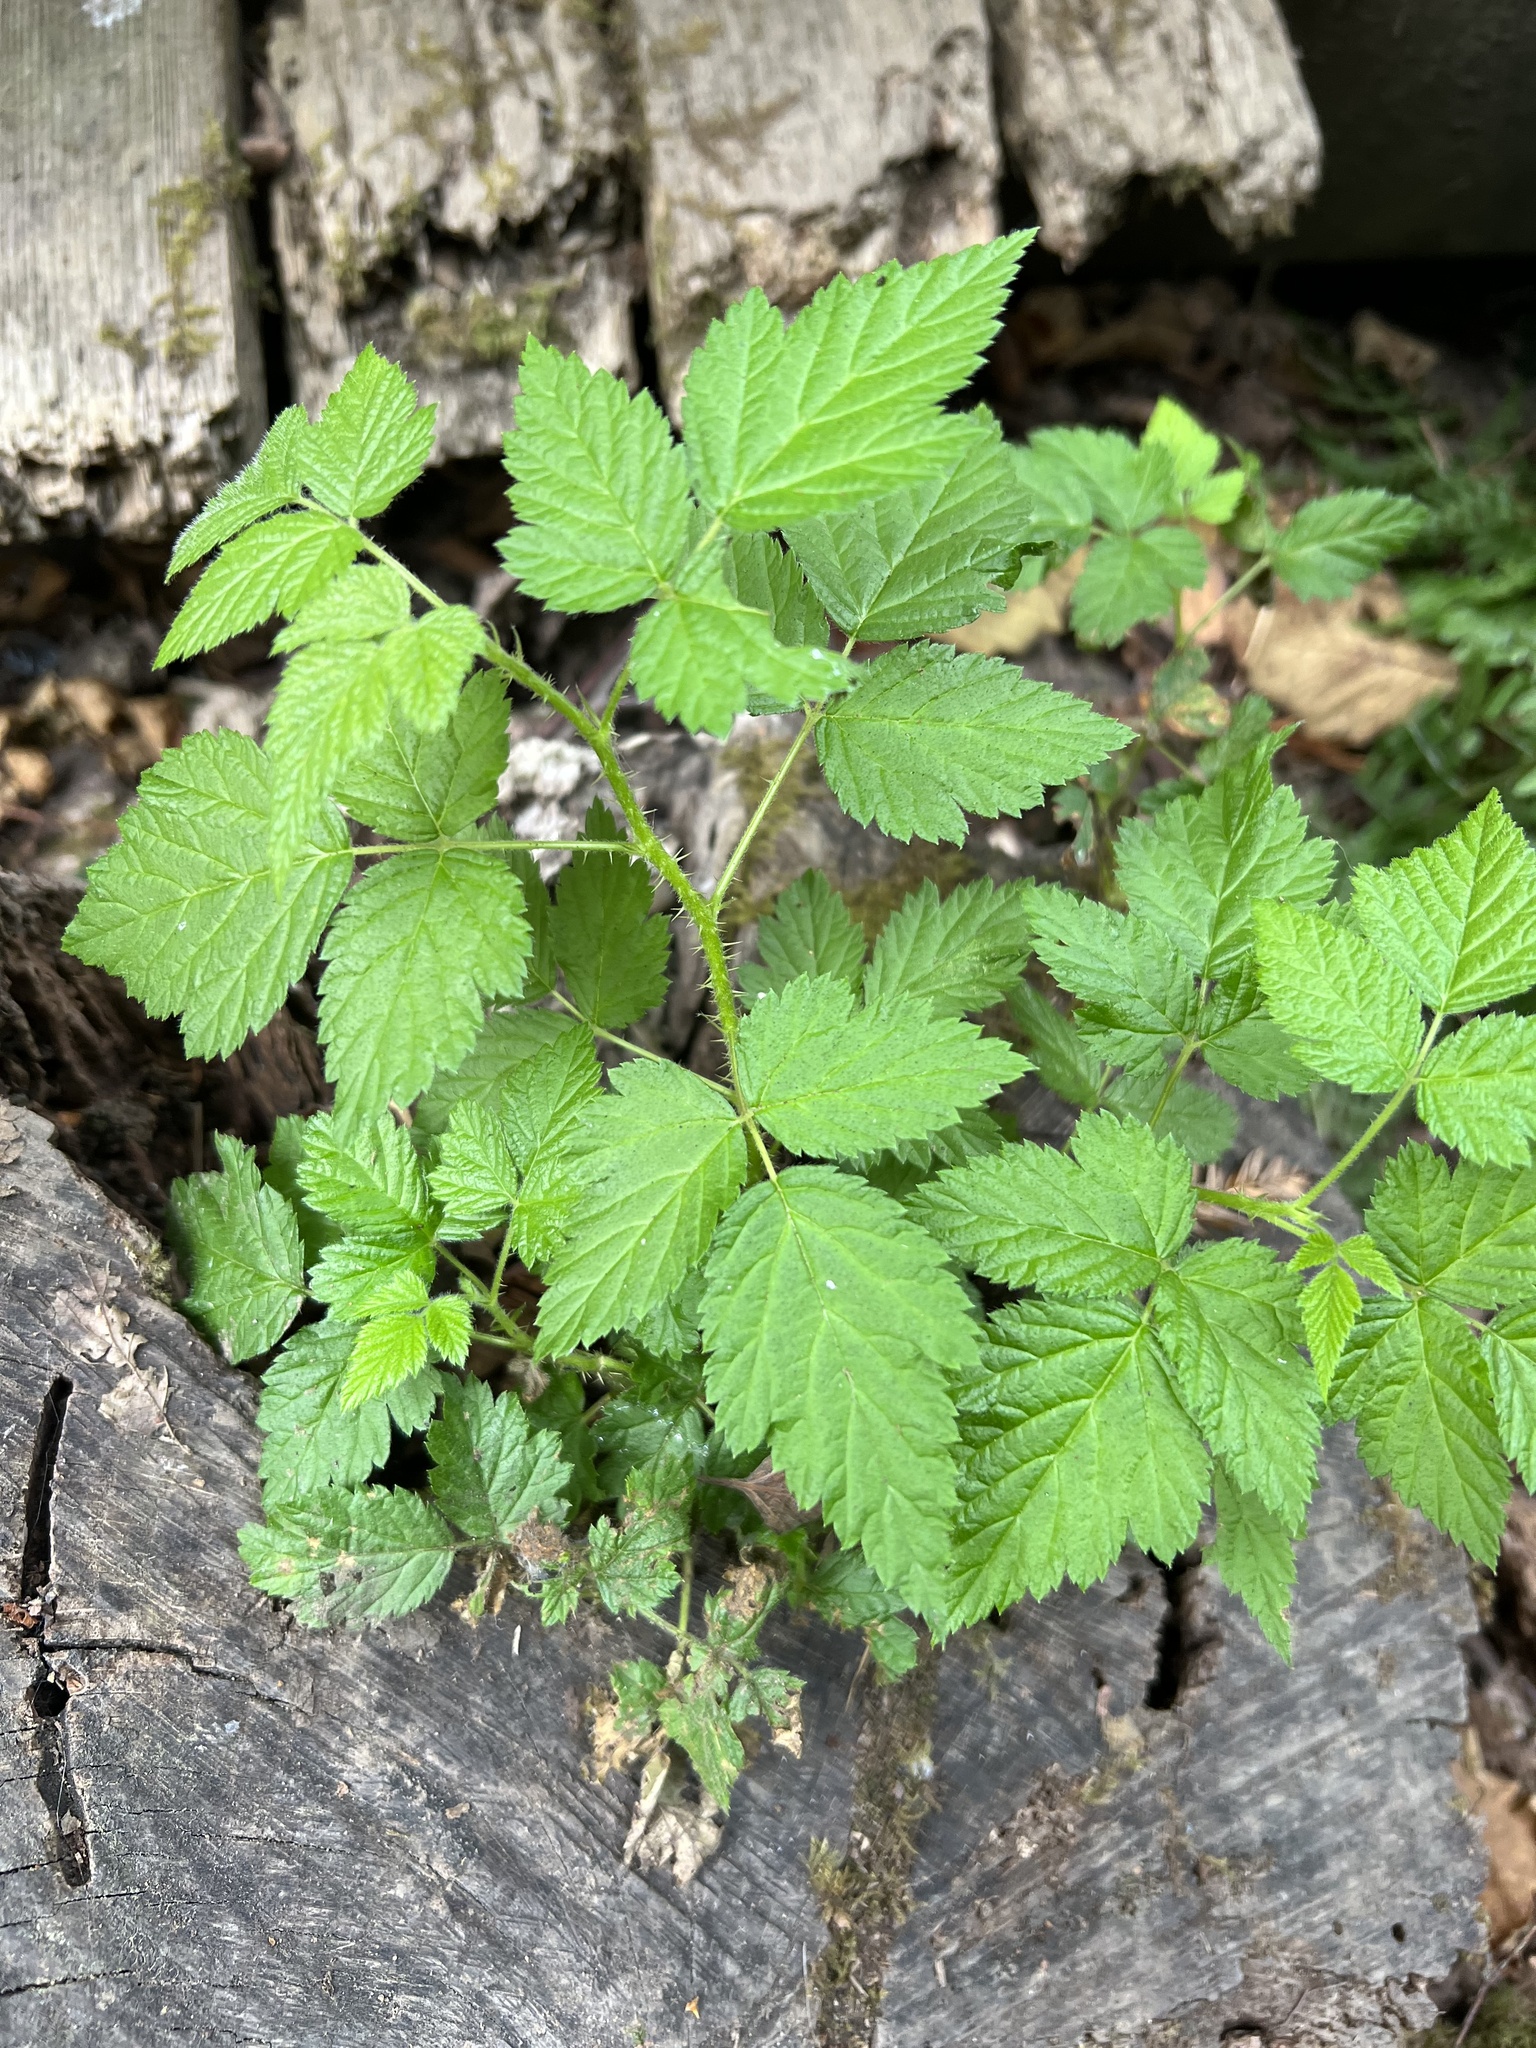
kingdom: Plantae
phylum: Tracheophyta
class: Magnoliopsida
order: Rosales
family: Rosaceae
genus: Rubus
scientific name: Rubus spectabilis
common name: Salmonberry
